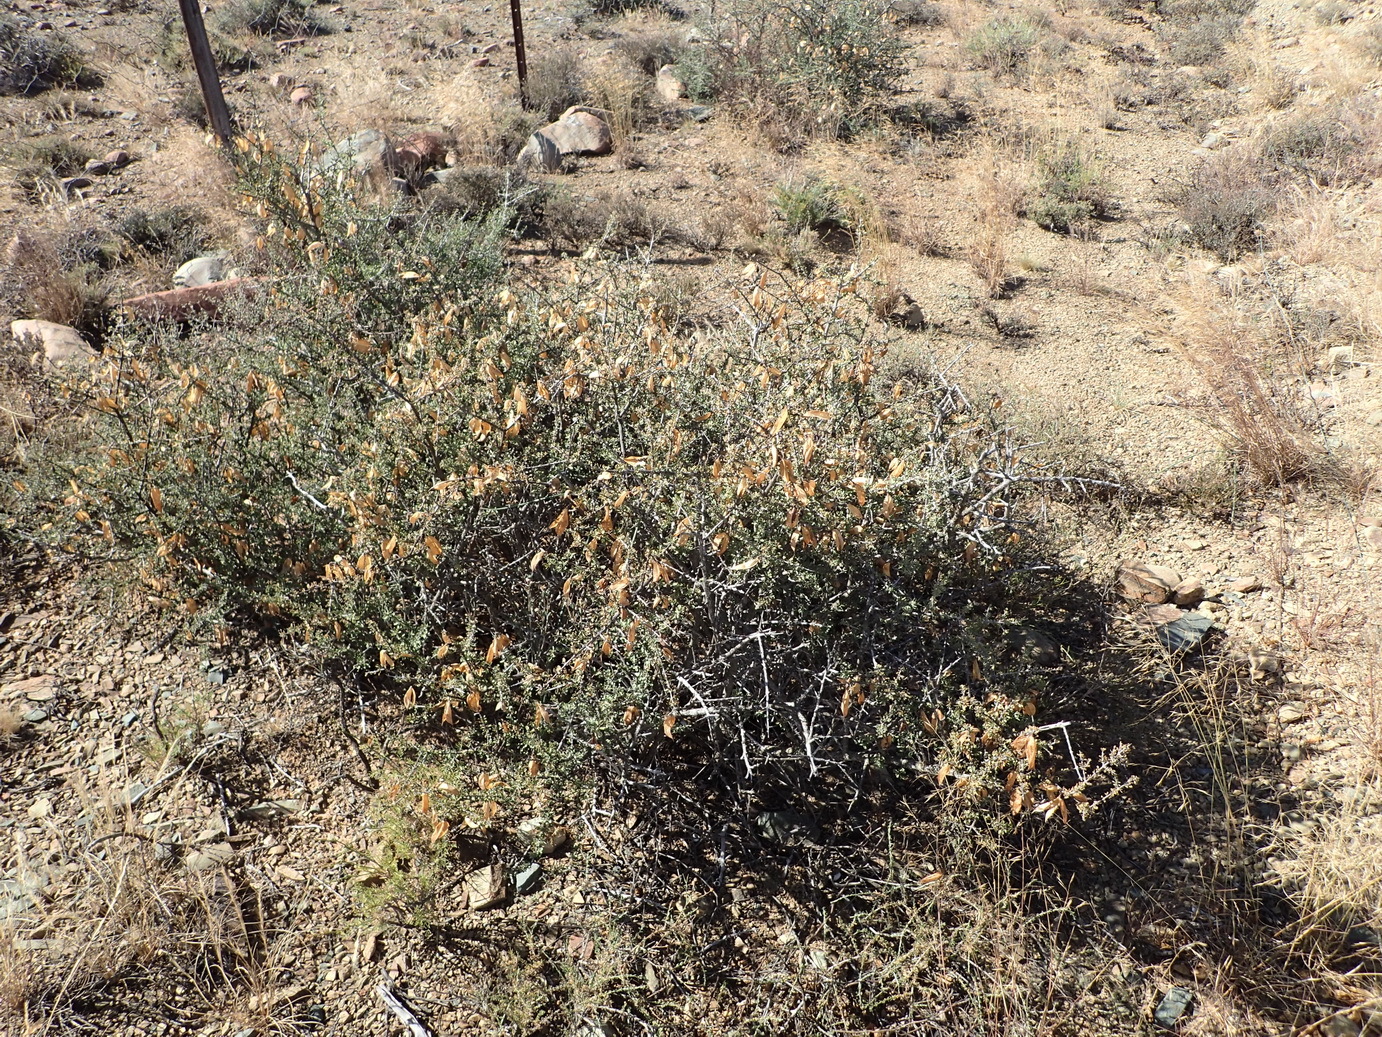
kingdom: Plantae
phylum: Tracheophyta
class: Magnoliopsida
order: Lamiales
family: Bignoniaceae
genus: Rhigozum
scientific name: Rhigozum obovatum
